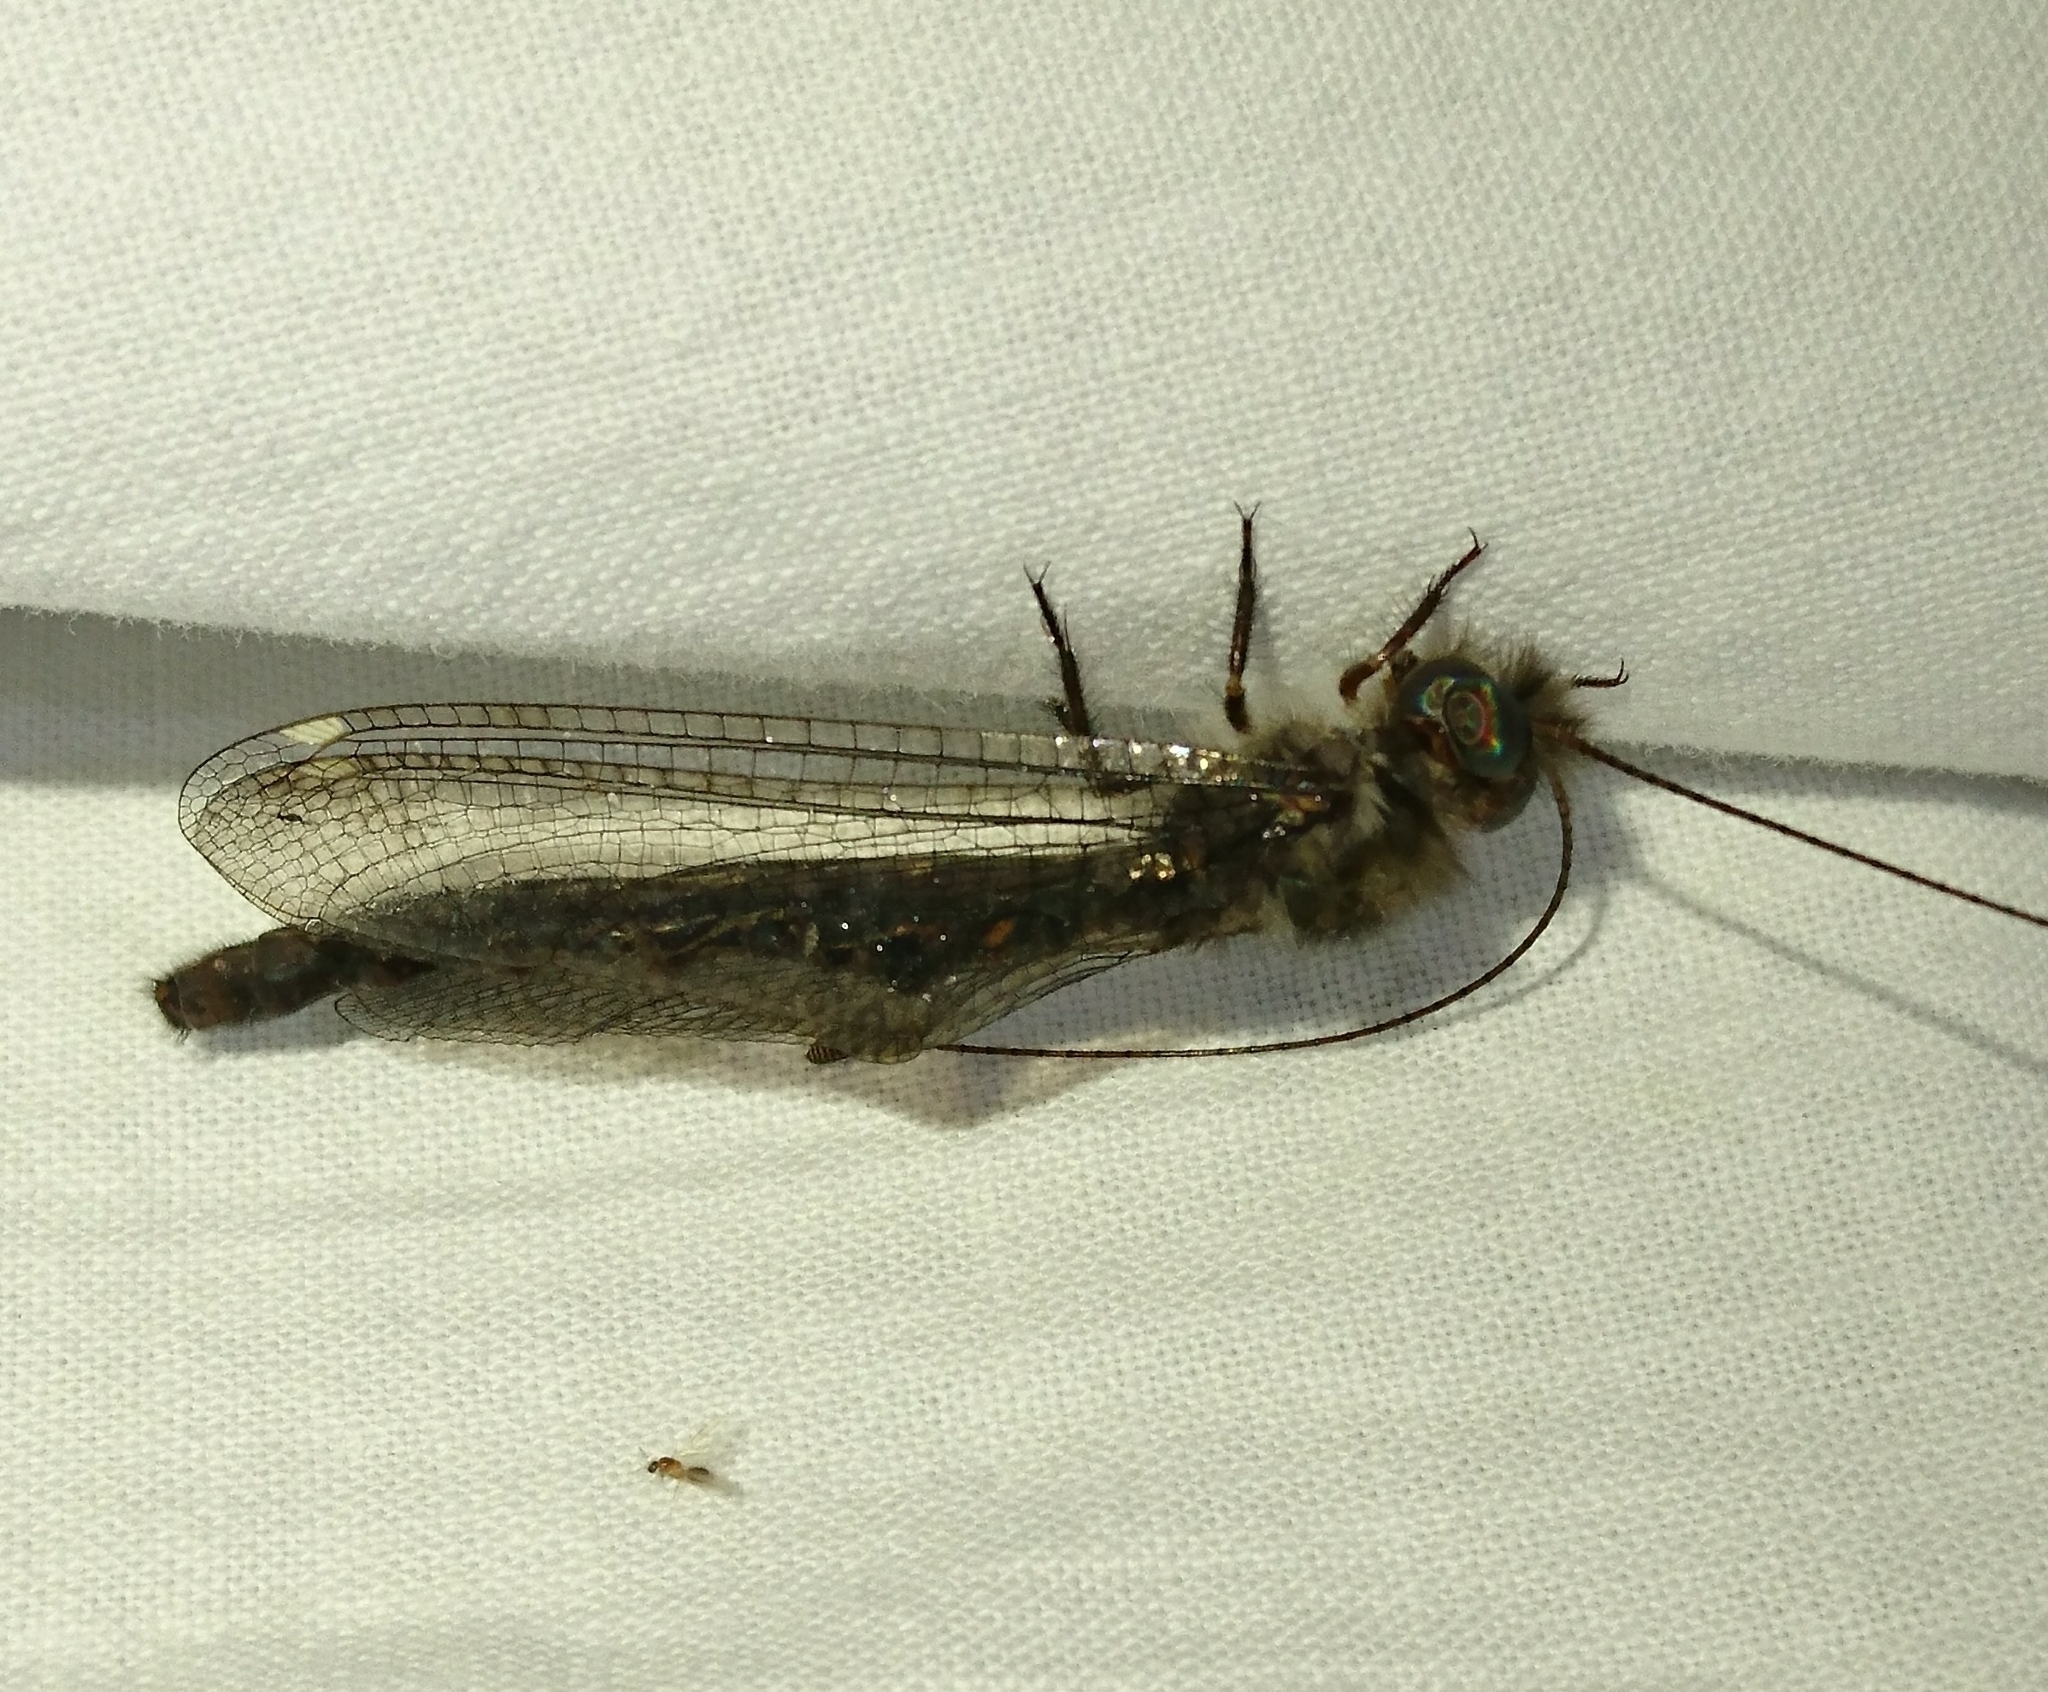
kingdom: Animalia
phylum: Arthropoda
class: Insecta
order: Neuroptera
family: Ascalaphidae
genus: Ululodes
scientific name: Ululodes quadripunctatus
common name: Four-spotted owlfly
